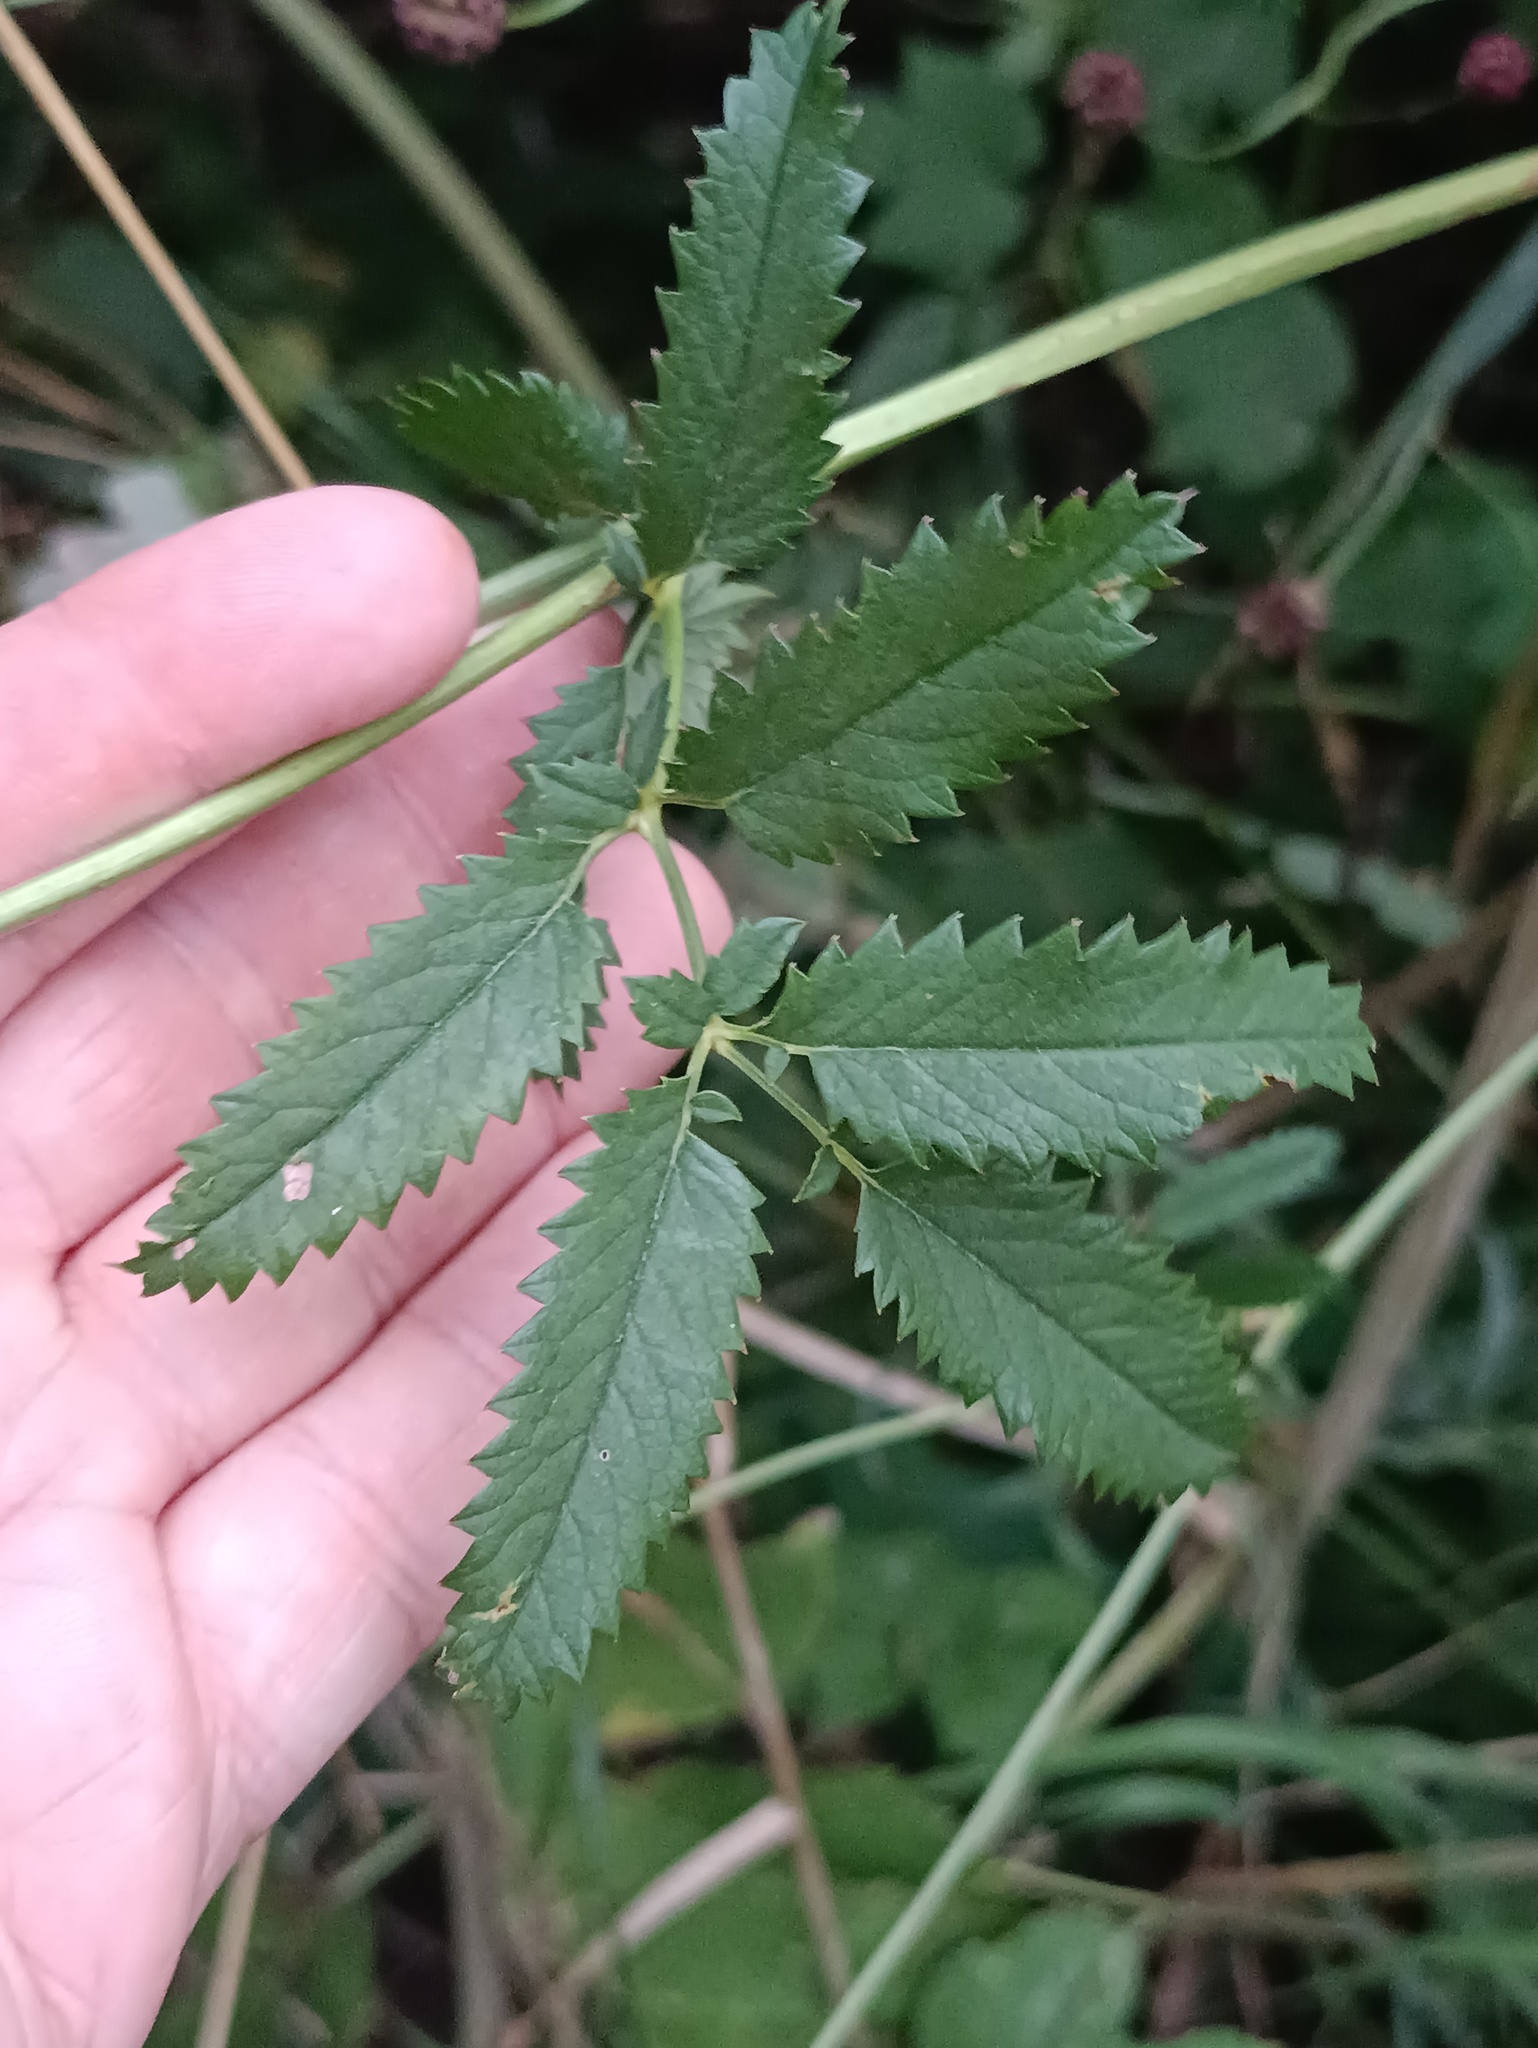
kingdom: Plantae
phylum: Tracheophyta
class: Magnoliopsida
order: Rosales
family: Rosaceae
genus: Sanguisorba
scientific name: Sanguisorba officinalis
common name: Great burnet
